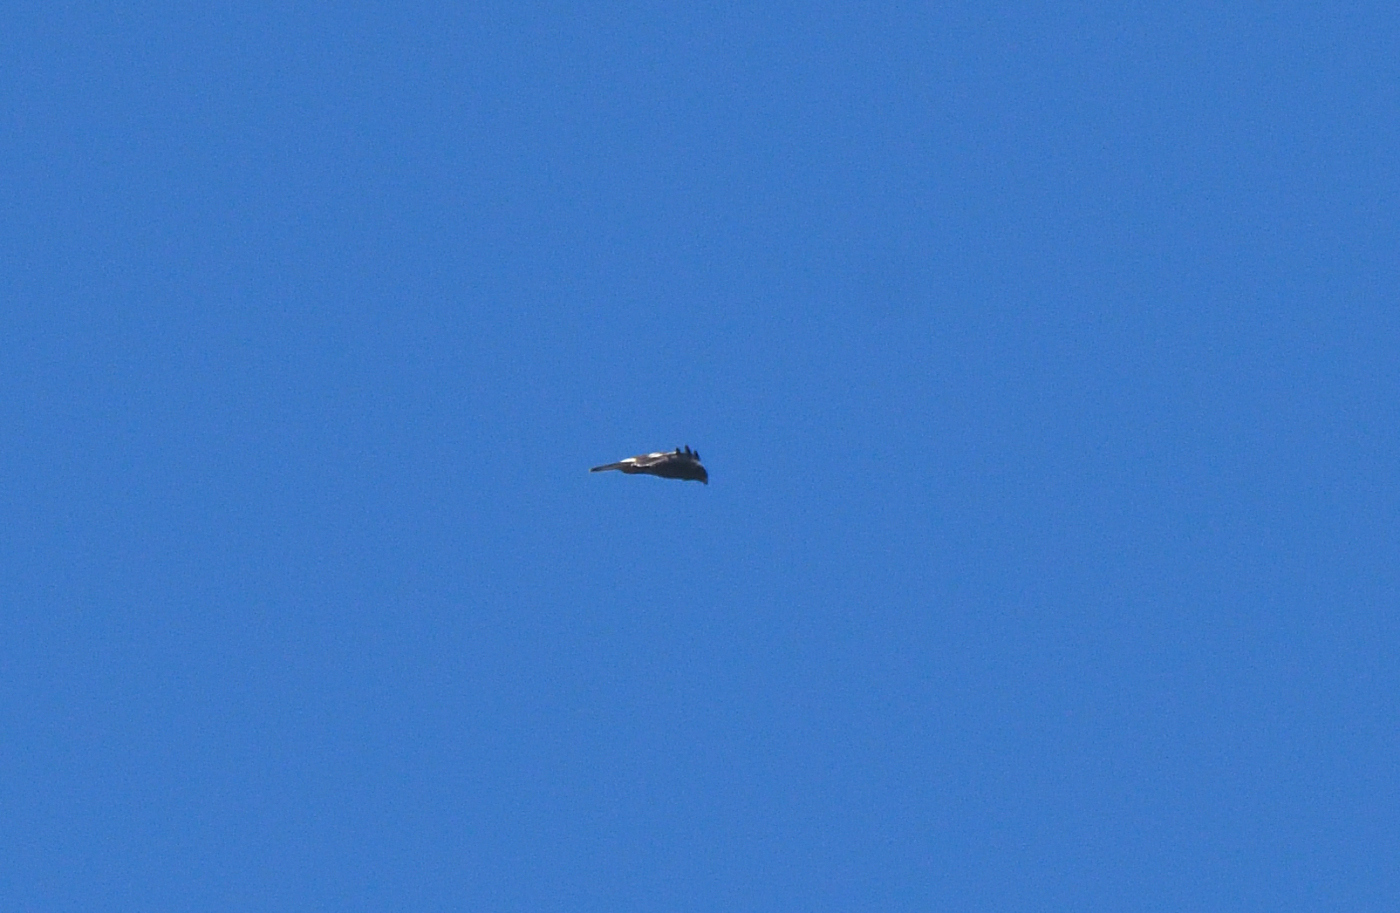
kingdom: Animalia
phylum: Chordata
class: Aves
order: Accipitriformes
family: Accipitridae
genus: Hieraaetus
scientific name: Hieraaetus pennatus
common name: Booted eagle
